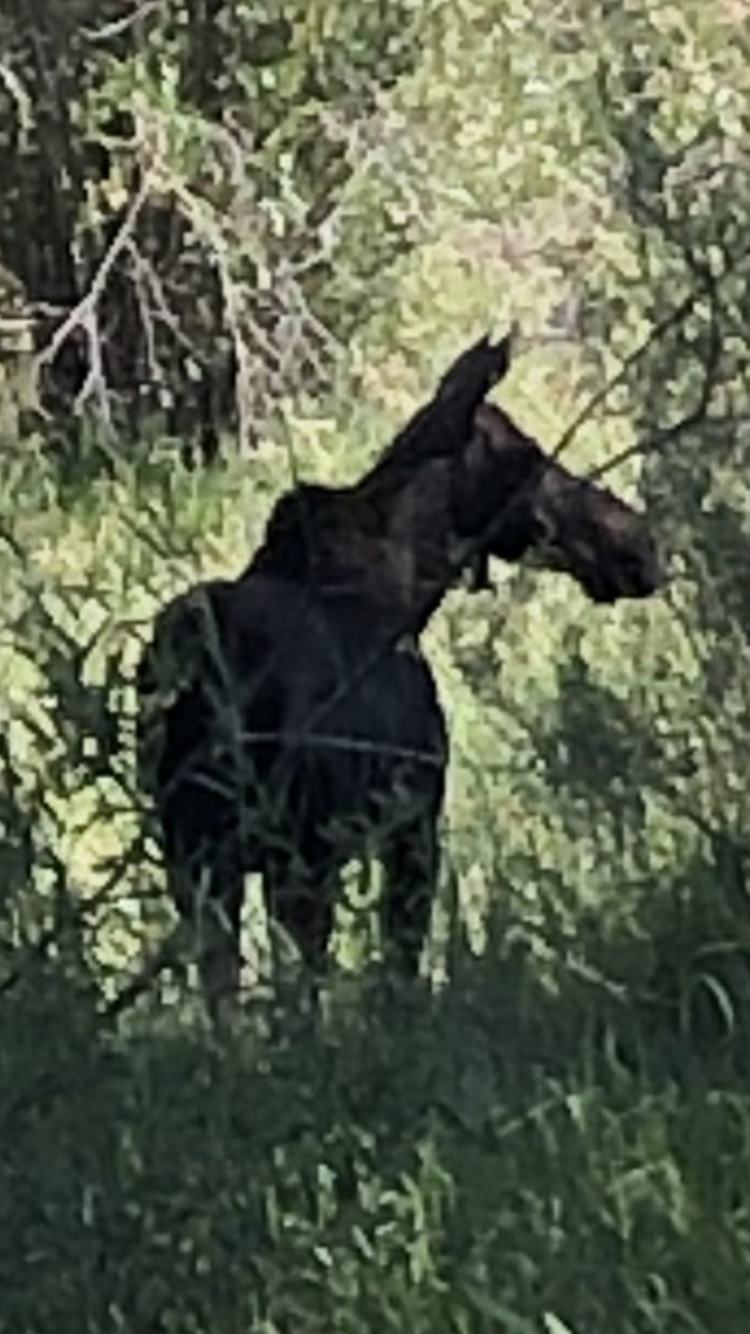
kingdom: Animalia
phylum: Chordata
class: Mammalia
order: Artiodactyla
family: Cervidae
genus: Alces
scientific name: Alces alces
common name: Moose
